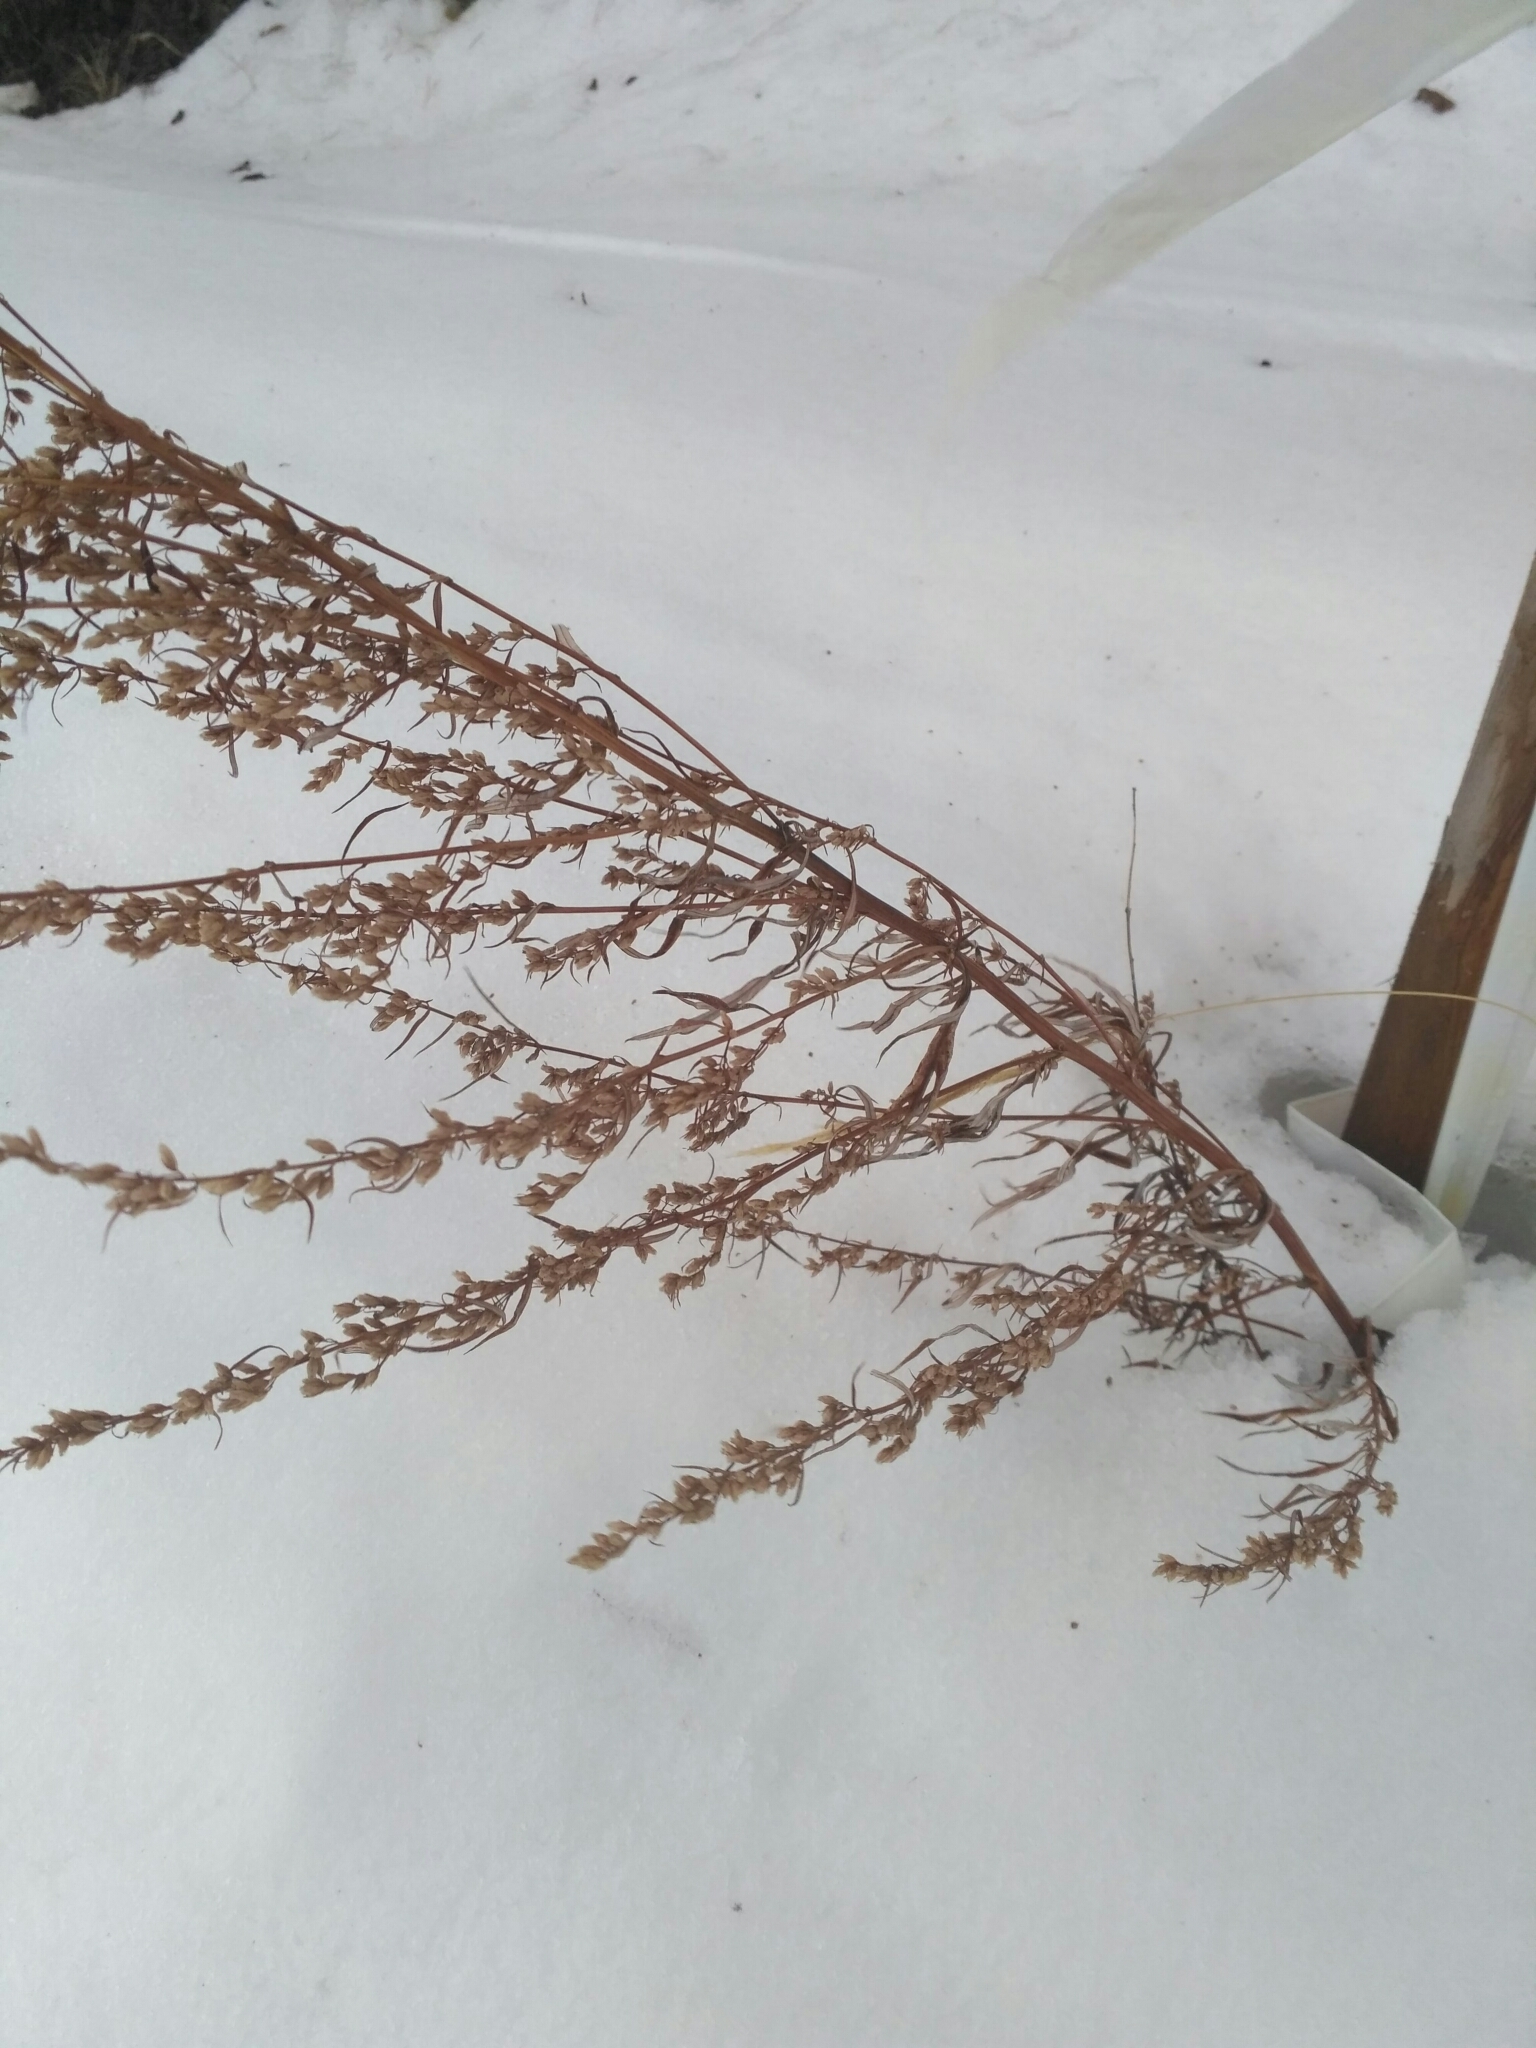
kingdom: Plantae
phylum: Tracheophyta
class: Magnoliopsida
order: Asterales
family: Asteraceae
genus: Artemisia
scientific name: Artemisia vulgaris
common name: Mugwort
